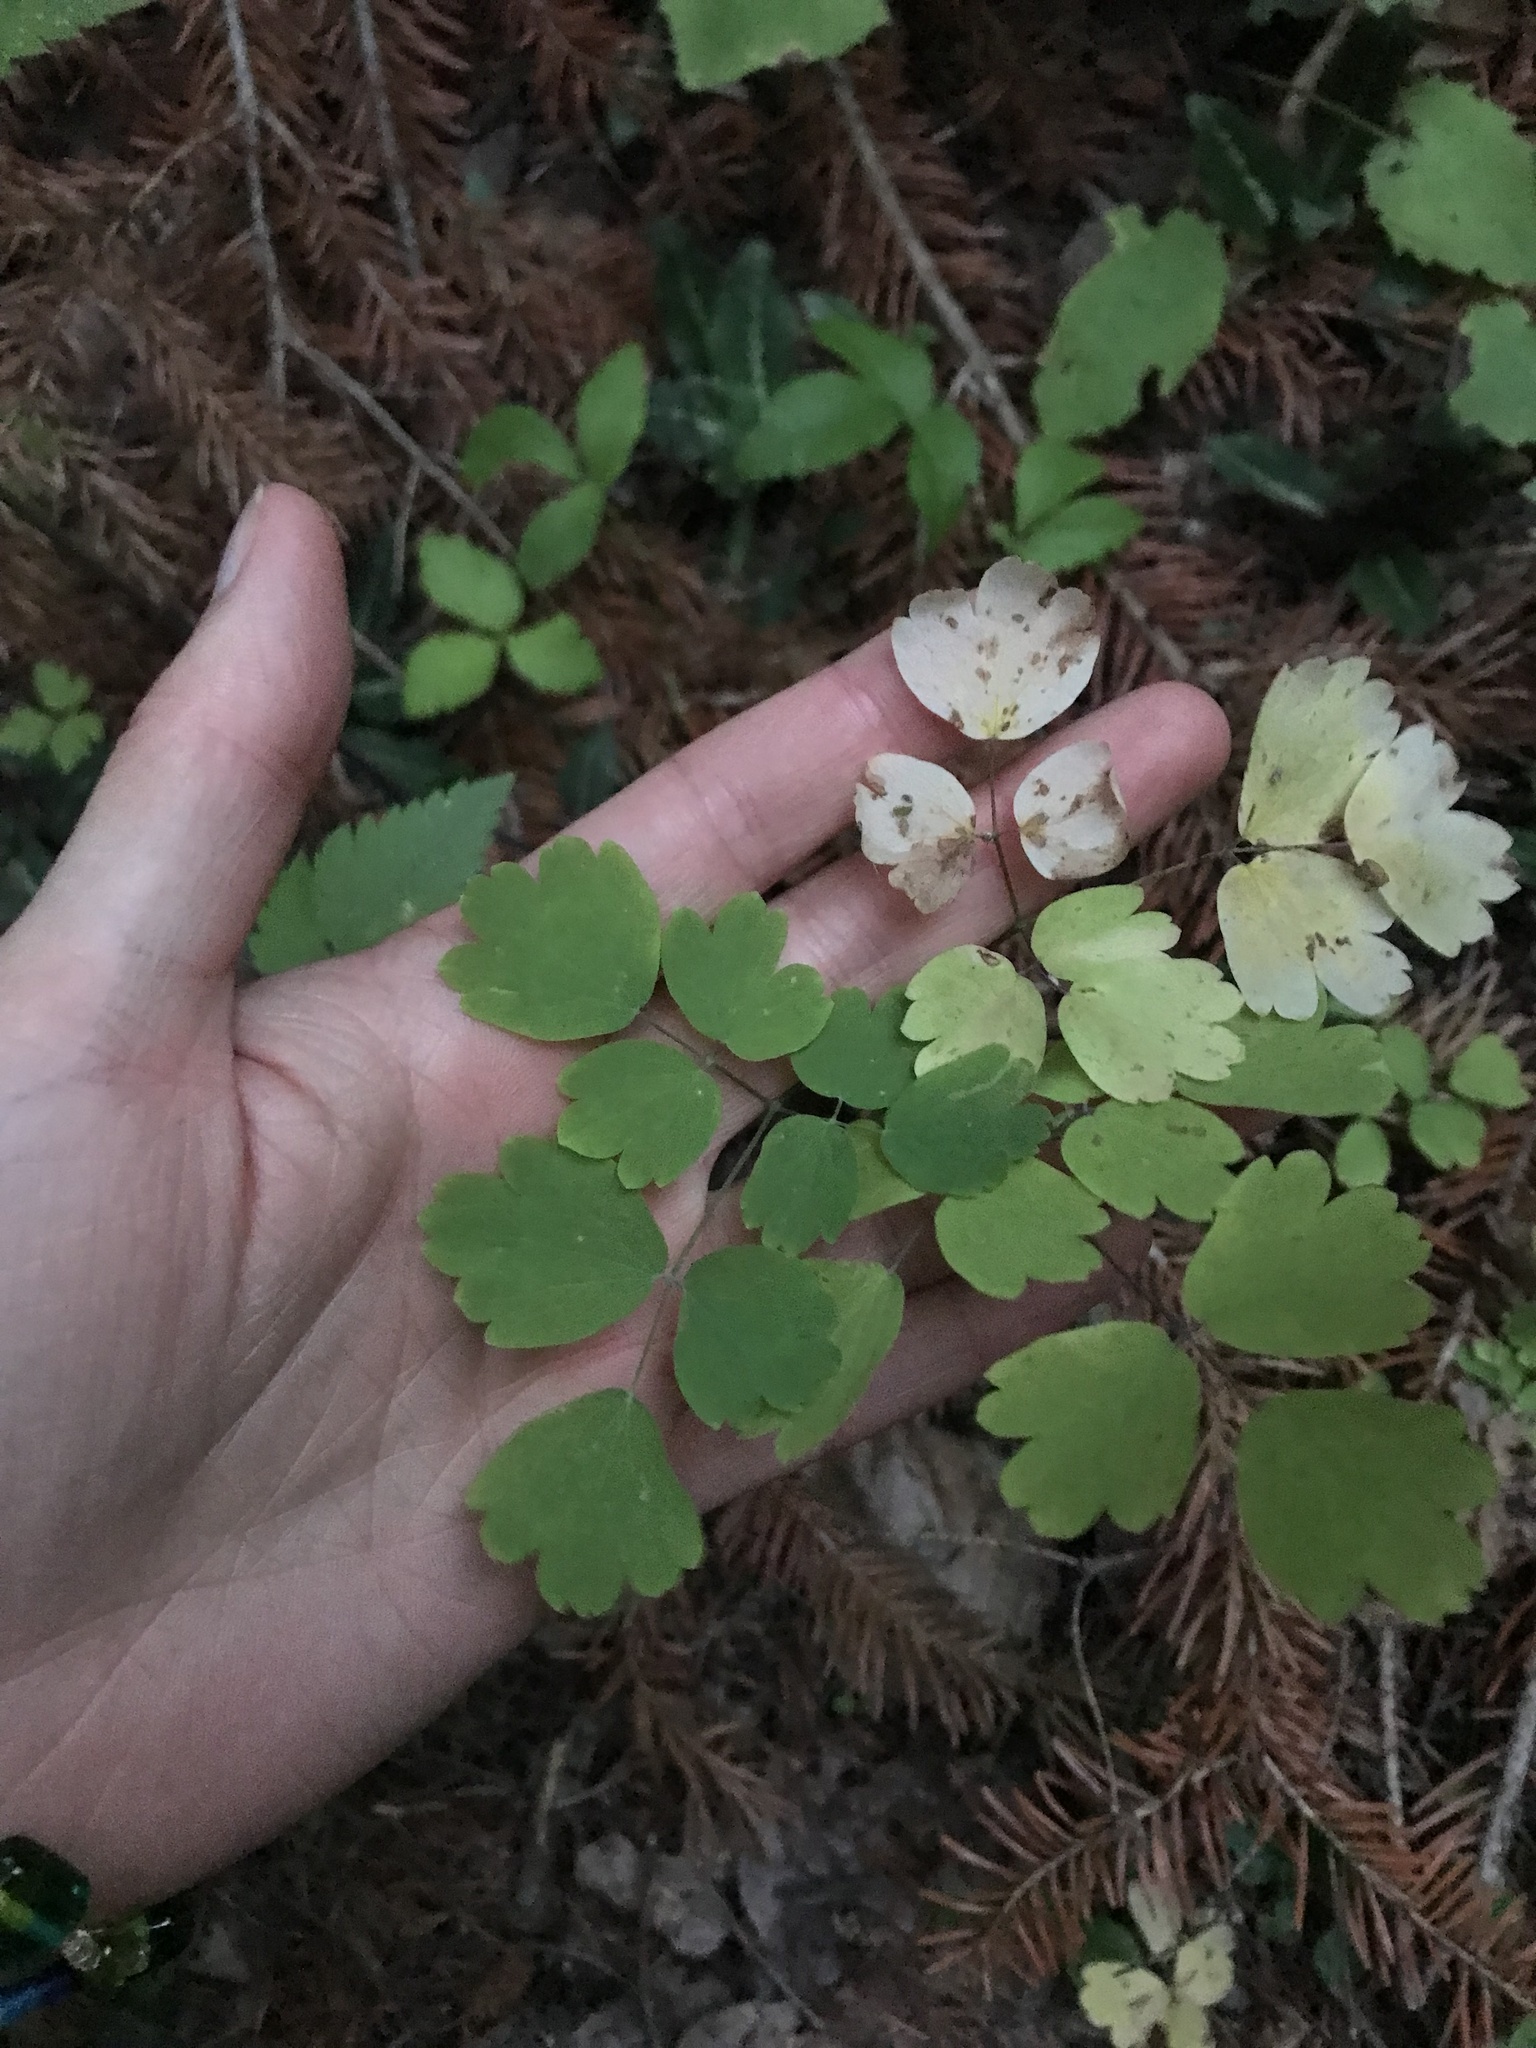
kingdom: Plantae
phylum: Tracheophyta
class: Magnoliopsida
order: Ranunculales
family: Ranunculaceae
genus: Thalictrum
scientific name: Thalictrum occidentale
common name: Western meadow-rue
